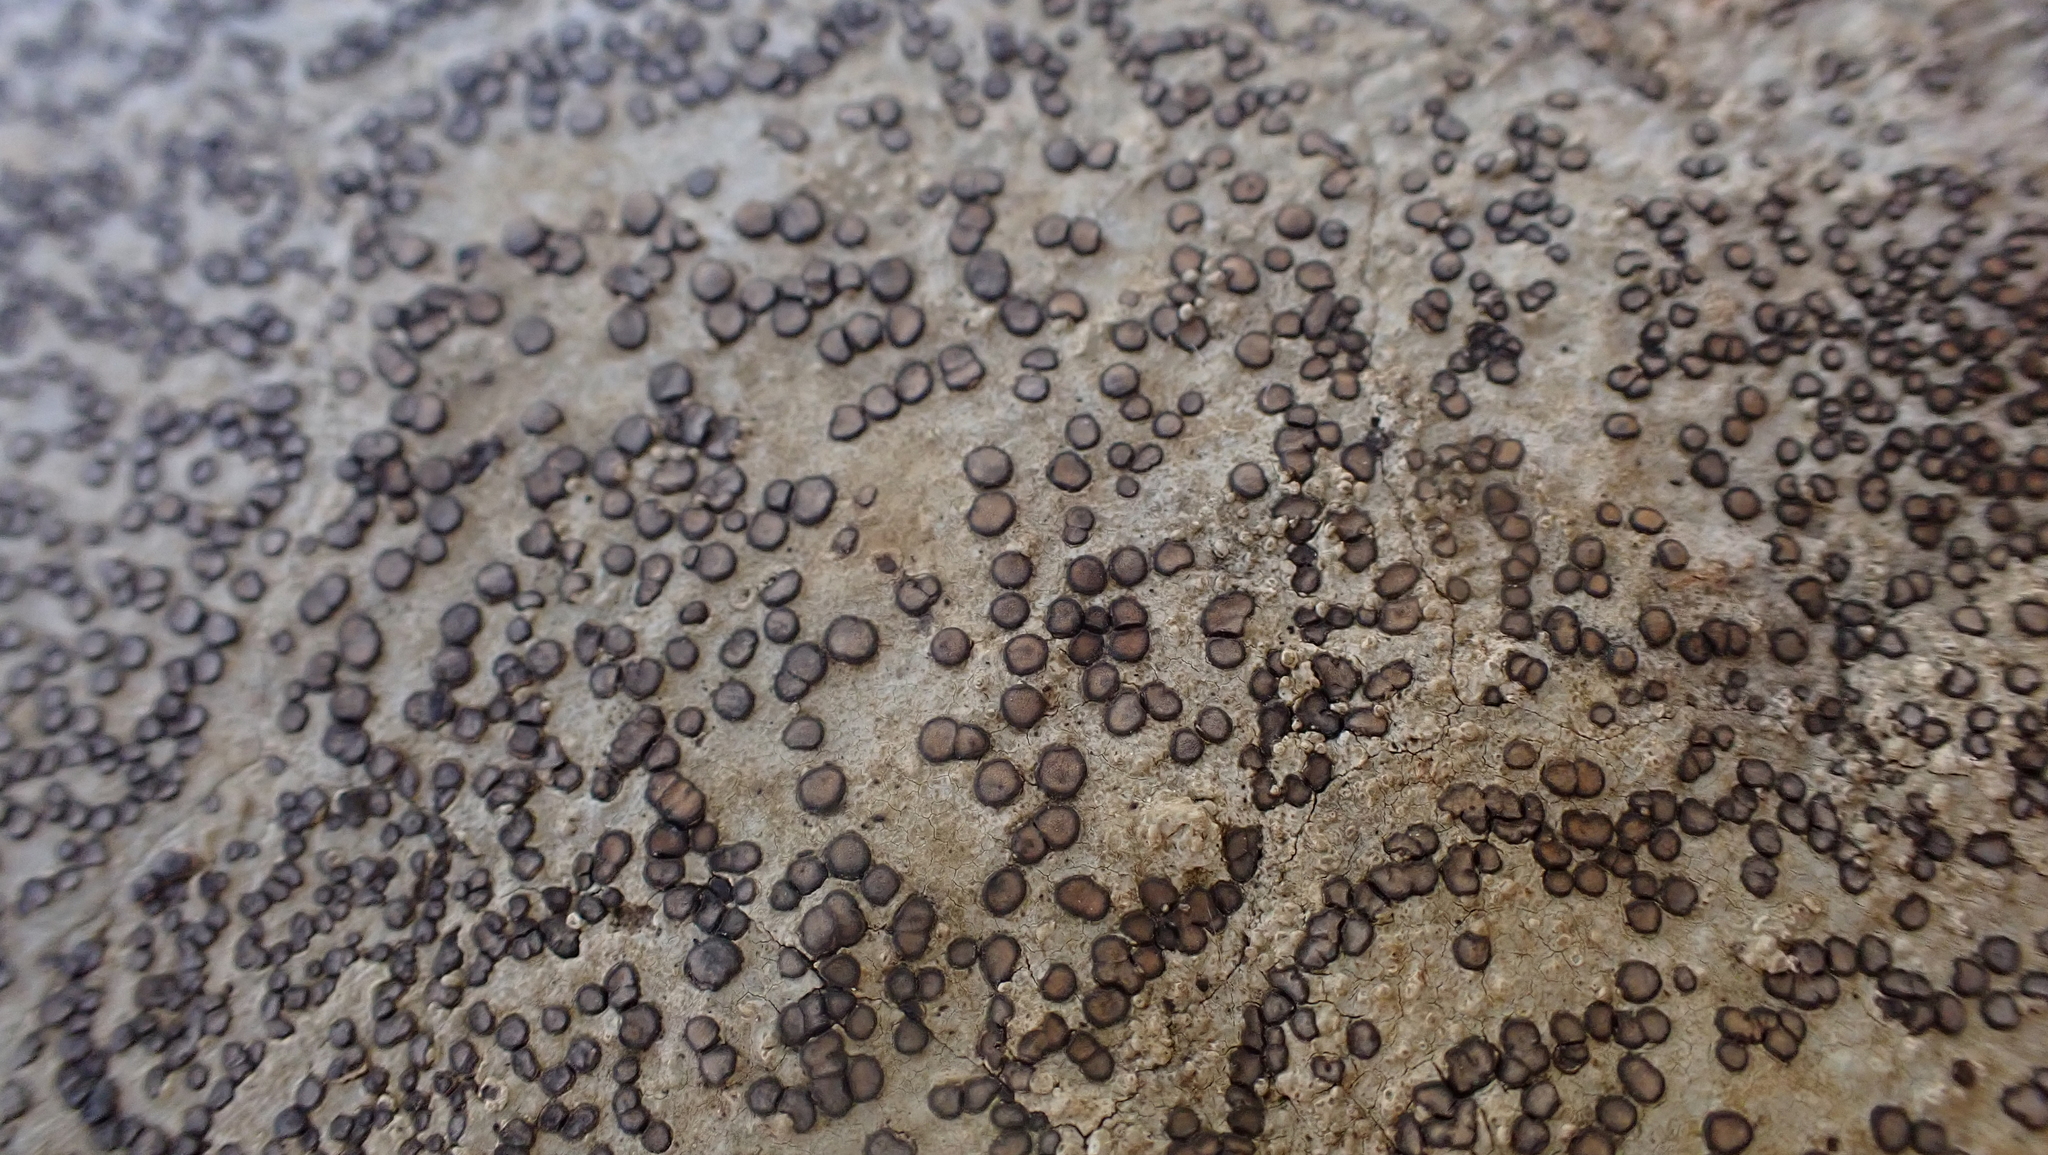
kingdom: Fungi
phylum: Ascomycota
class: Lecanoromycetes
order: Lecideales
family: Lecideaceae
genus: Porpidia
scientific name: Porpidia albocaerulescens
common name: Smokey-eyed boulder lichen
